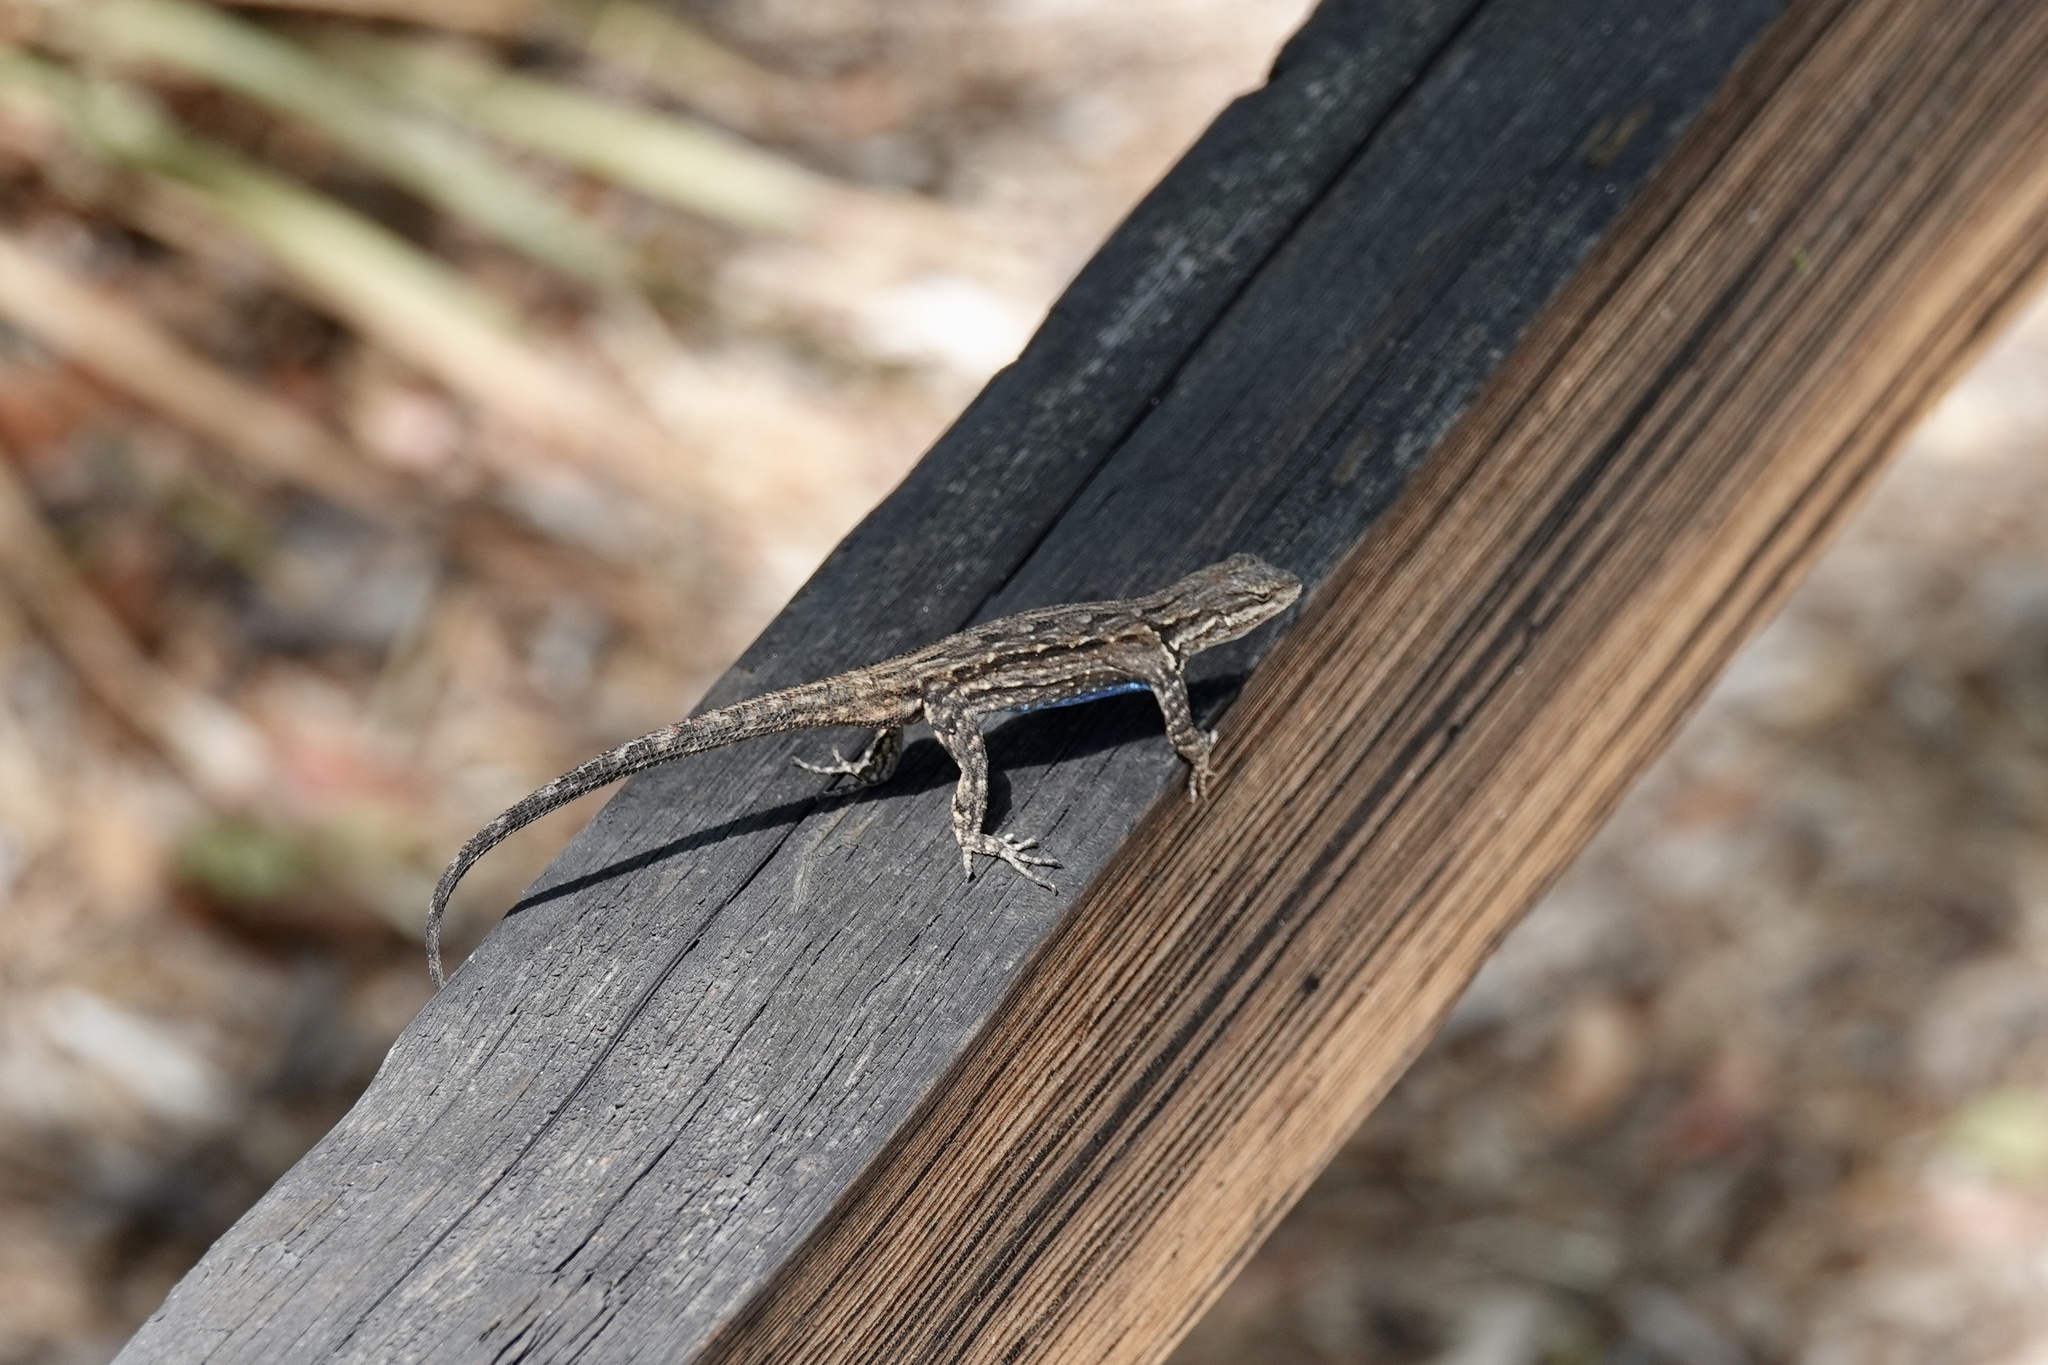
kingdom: Animalia
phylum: Chordata
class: Squamata
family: Phrynosomatidae
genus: Urosaurus
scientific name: Urosaurus ornatus
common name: Ornate tree lizard
